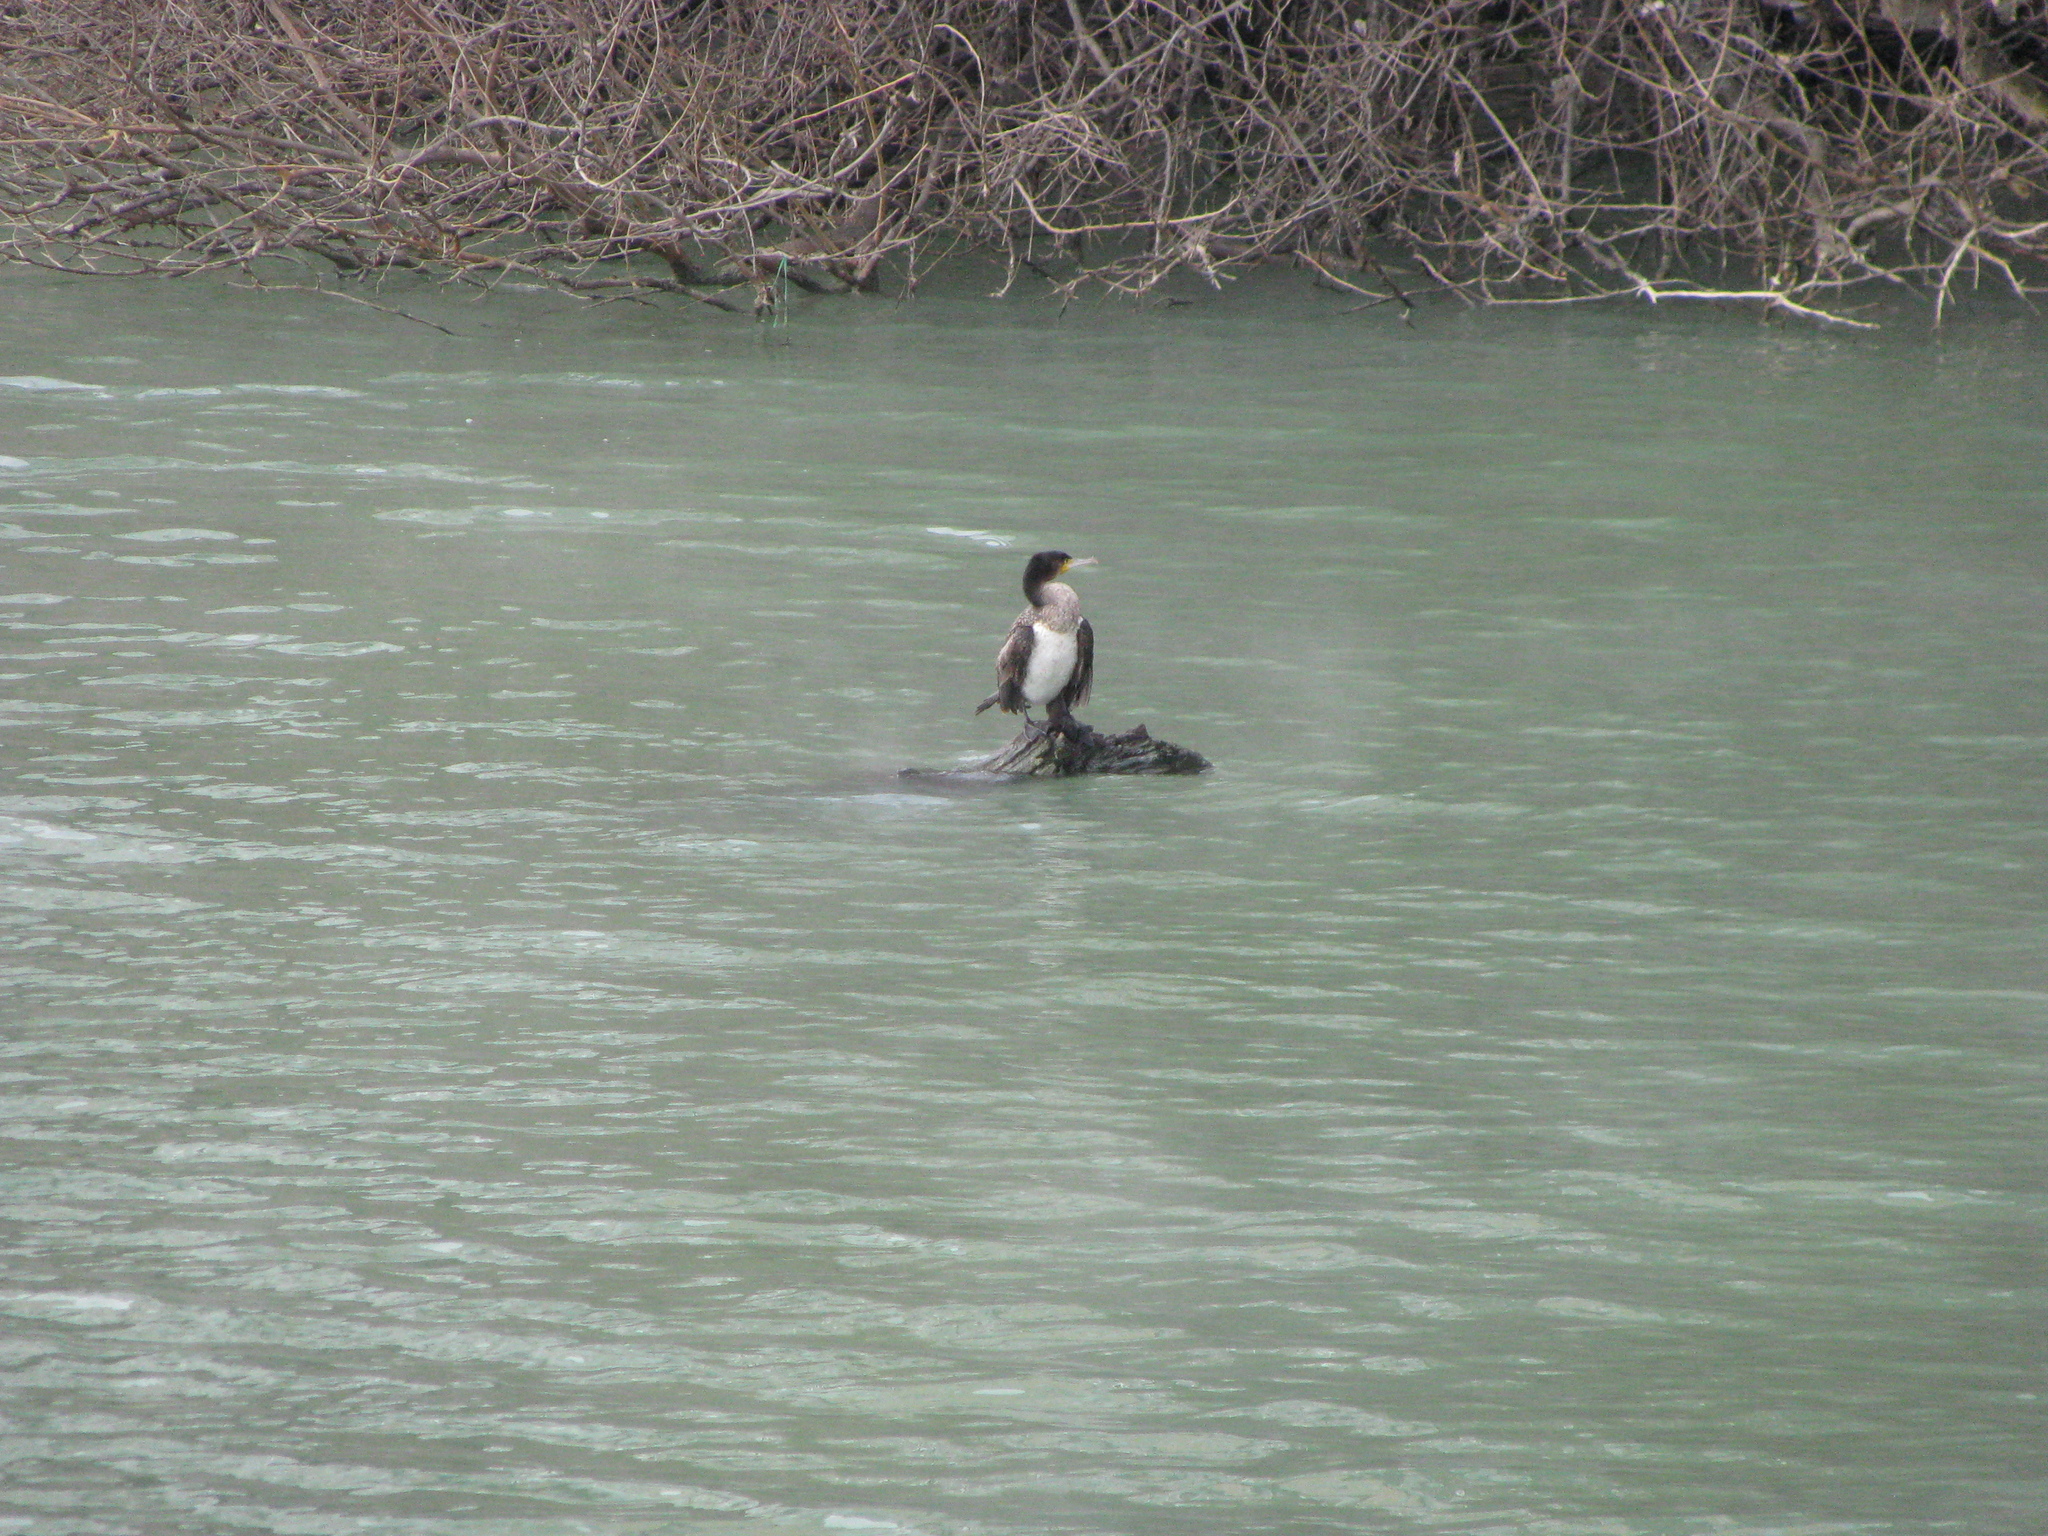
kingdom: Animalia
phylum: Chordata
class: Aves
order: Suliformes
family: Phalacrocoracidae
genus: Phalacrocorax
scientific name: Phalacrocorax carbo
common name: Great cormorant
